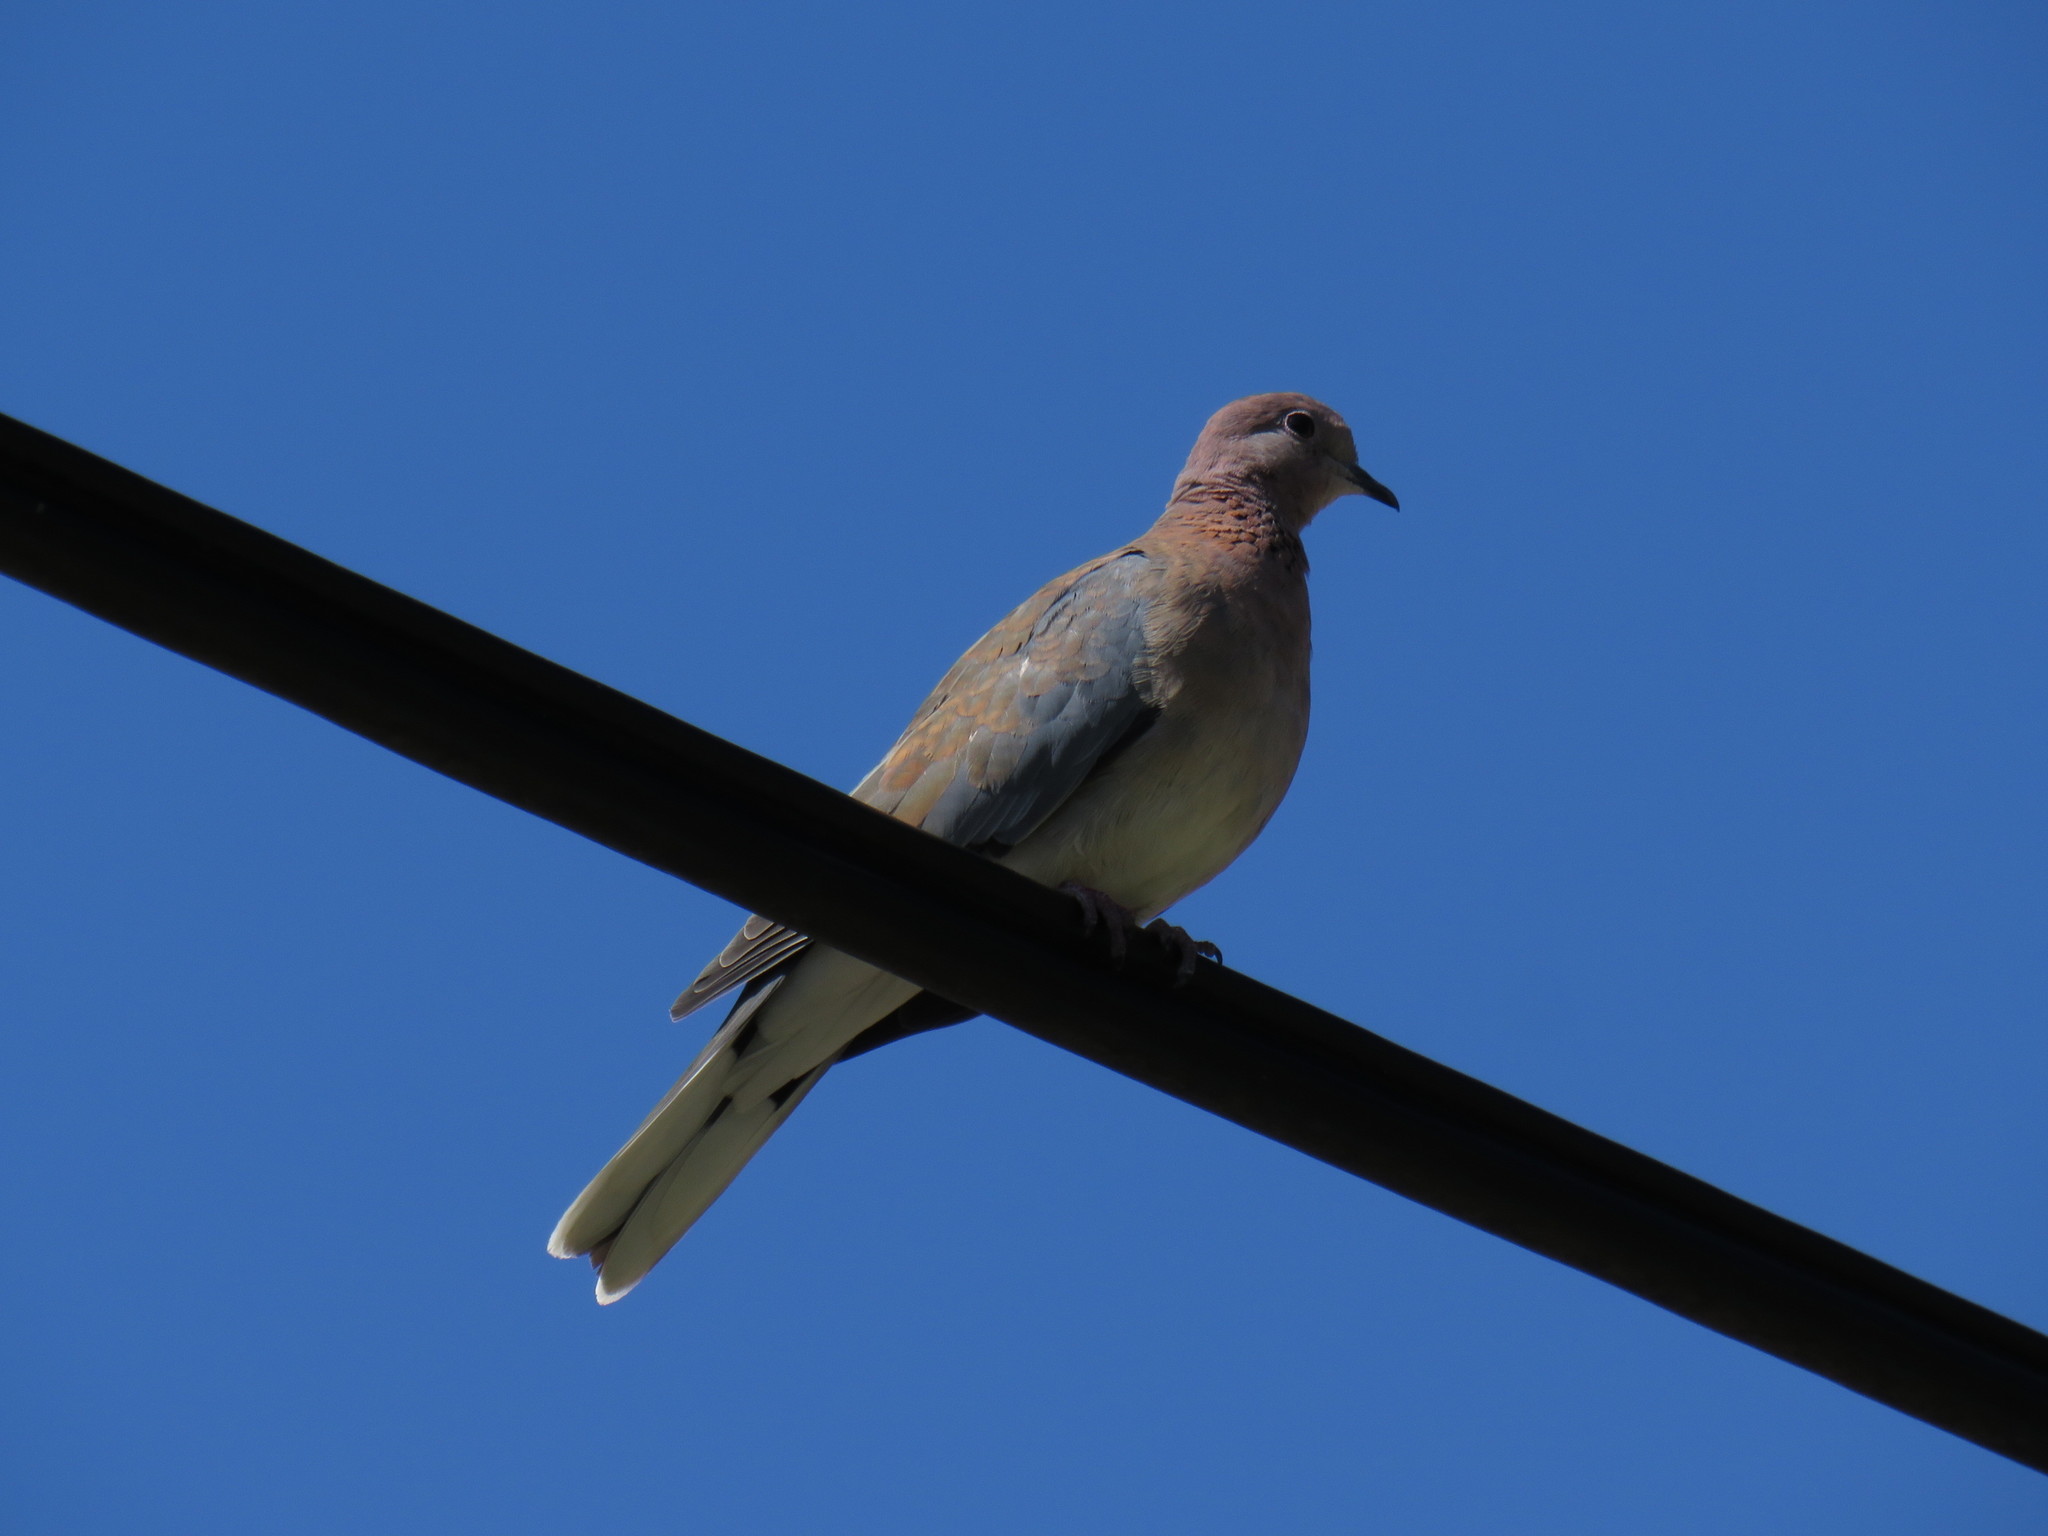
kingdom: Animalia
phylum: Chordata
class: Aves
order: Columbiformes
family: Columbidae
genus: Spilopelia
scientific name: Spilopelia senegalensis
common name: Laughing dove
